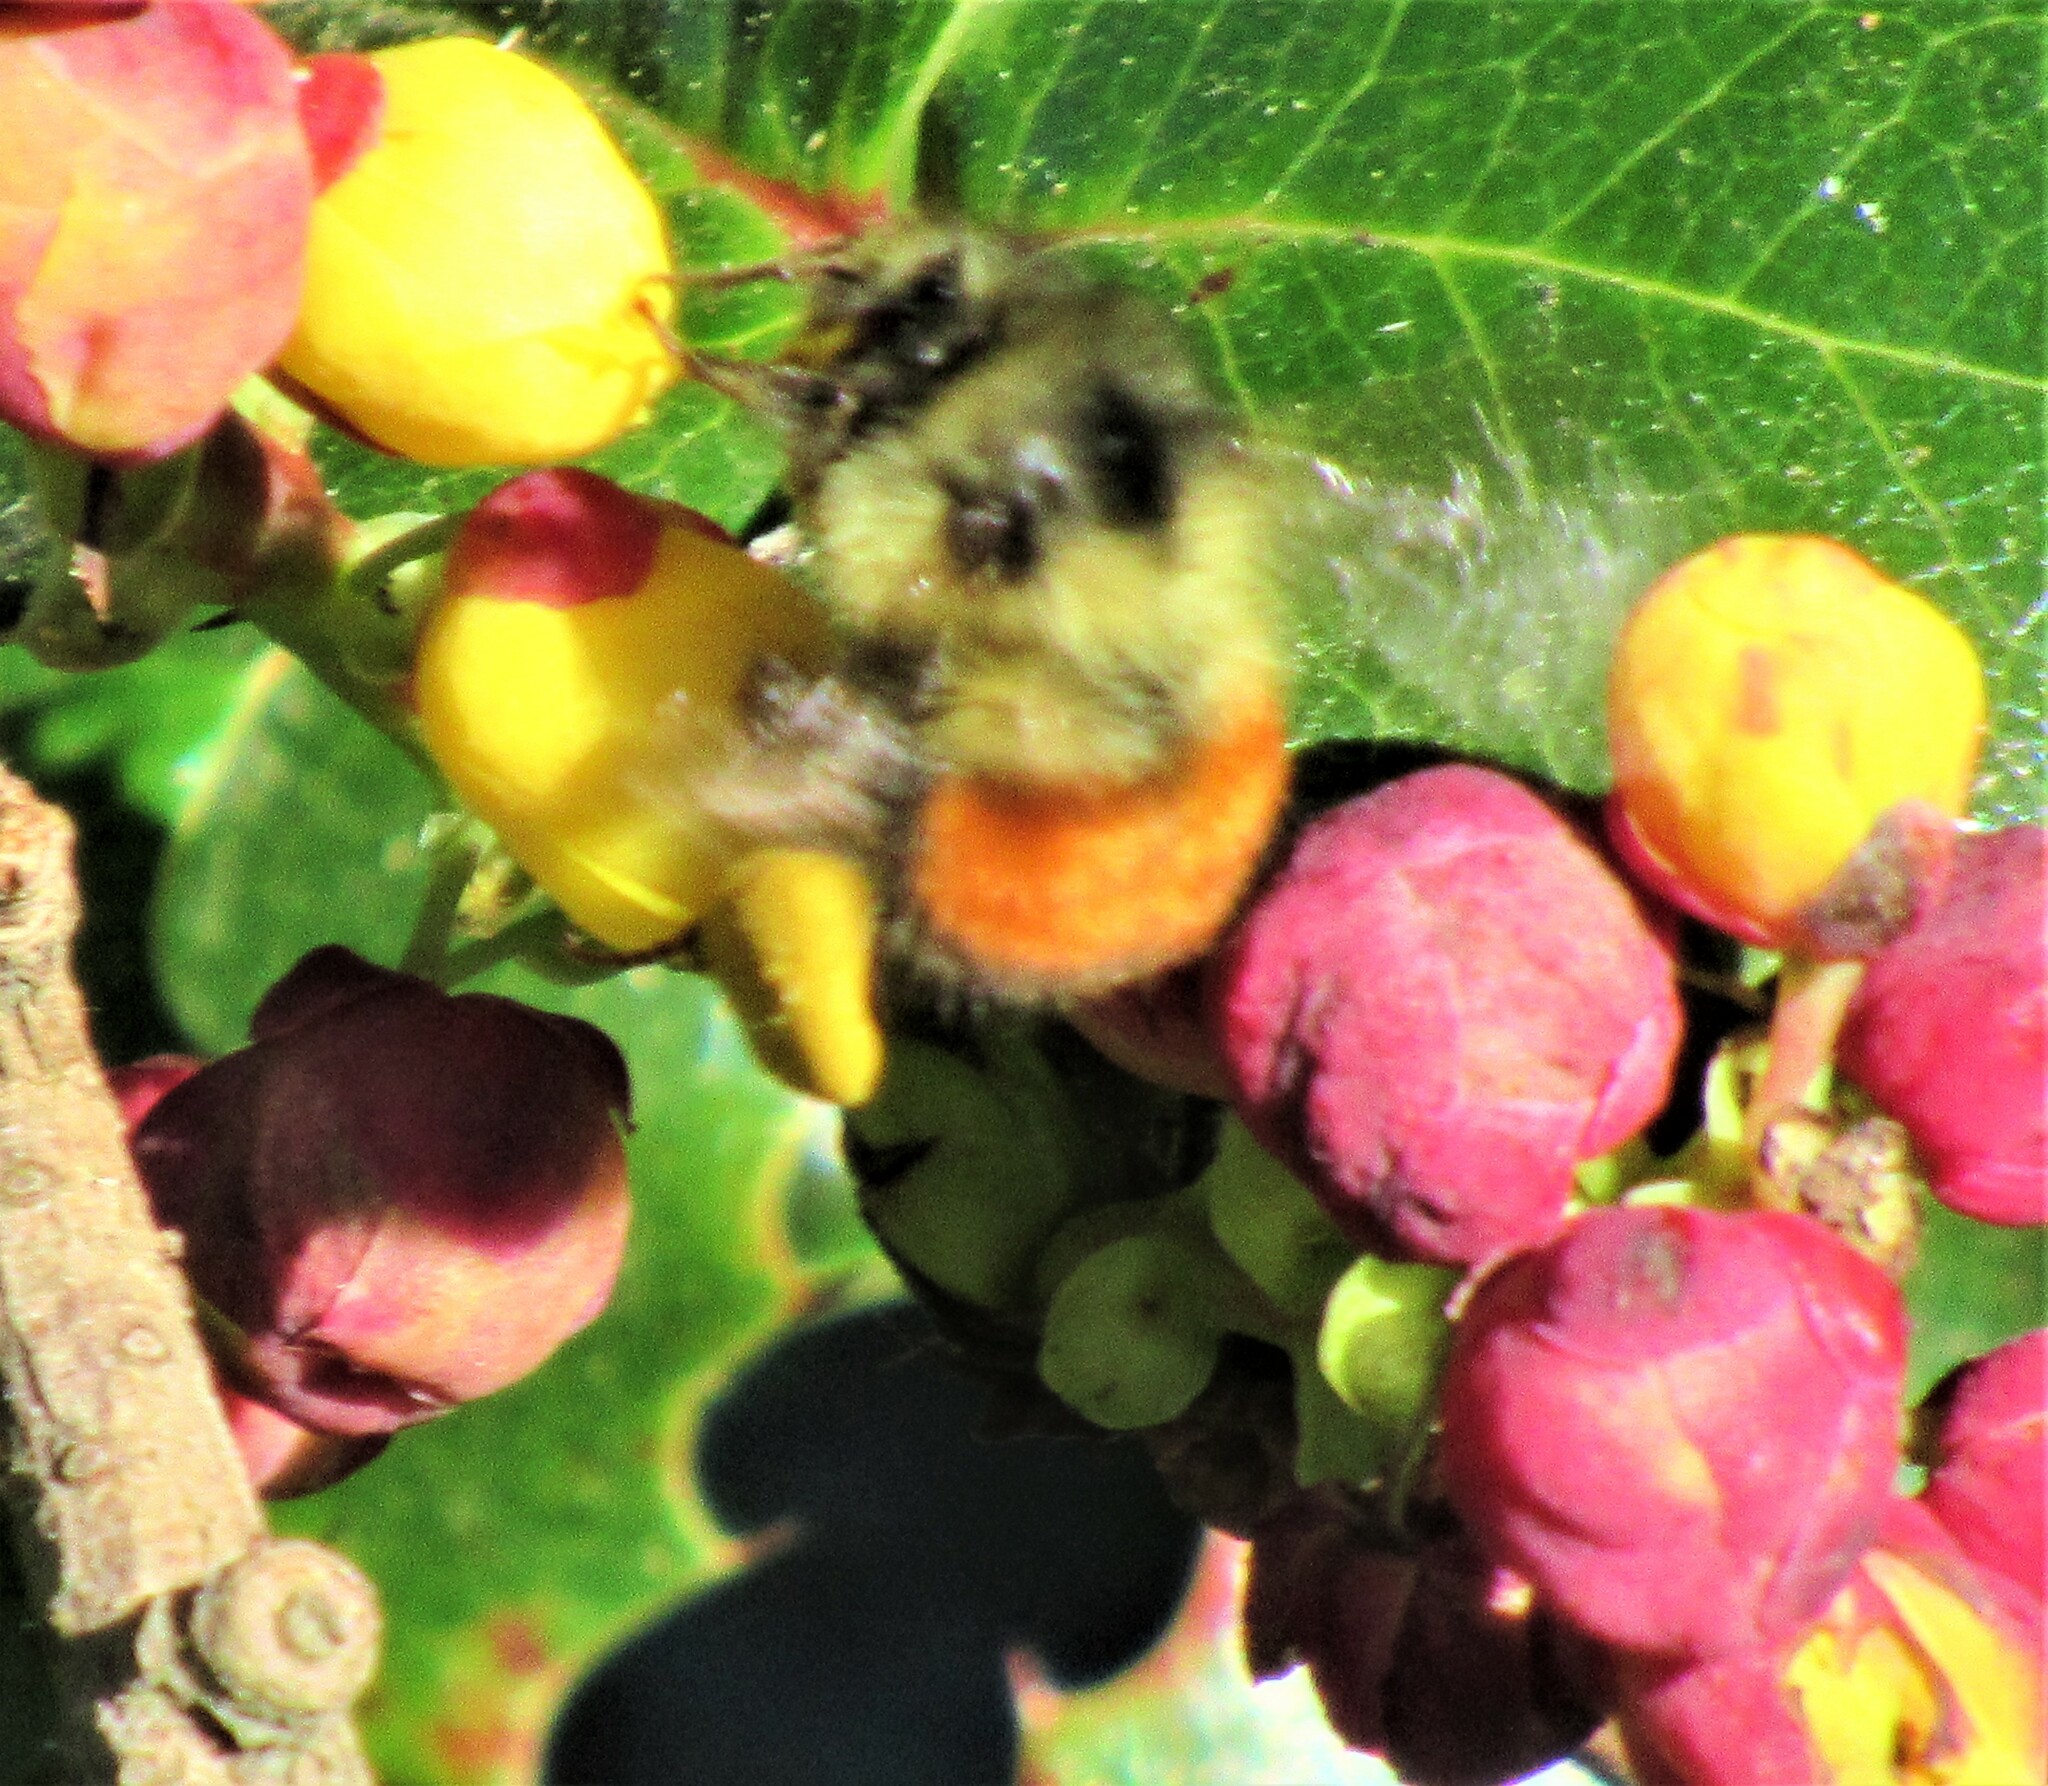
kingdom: Animalia
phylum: Arthropoda
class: Insecta
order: Hymenoptera
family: Apidae
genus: Bombus
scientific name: Bombus melanopygus
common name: Black tail bumble bee
